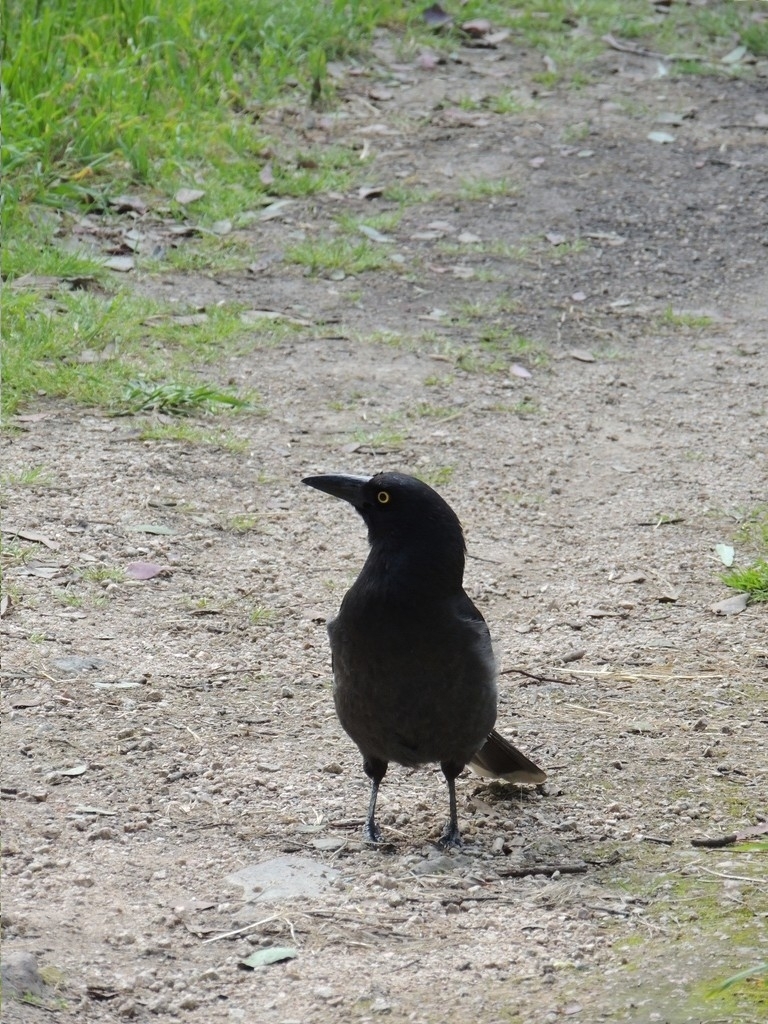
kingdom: Animalia
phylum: Chordata
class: Aves
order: Passeriformes
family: Cracticidae
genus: Strepera
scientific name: Strepera graculina
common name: Pied currawong
